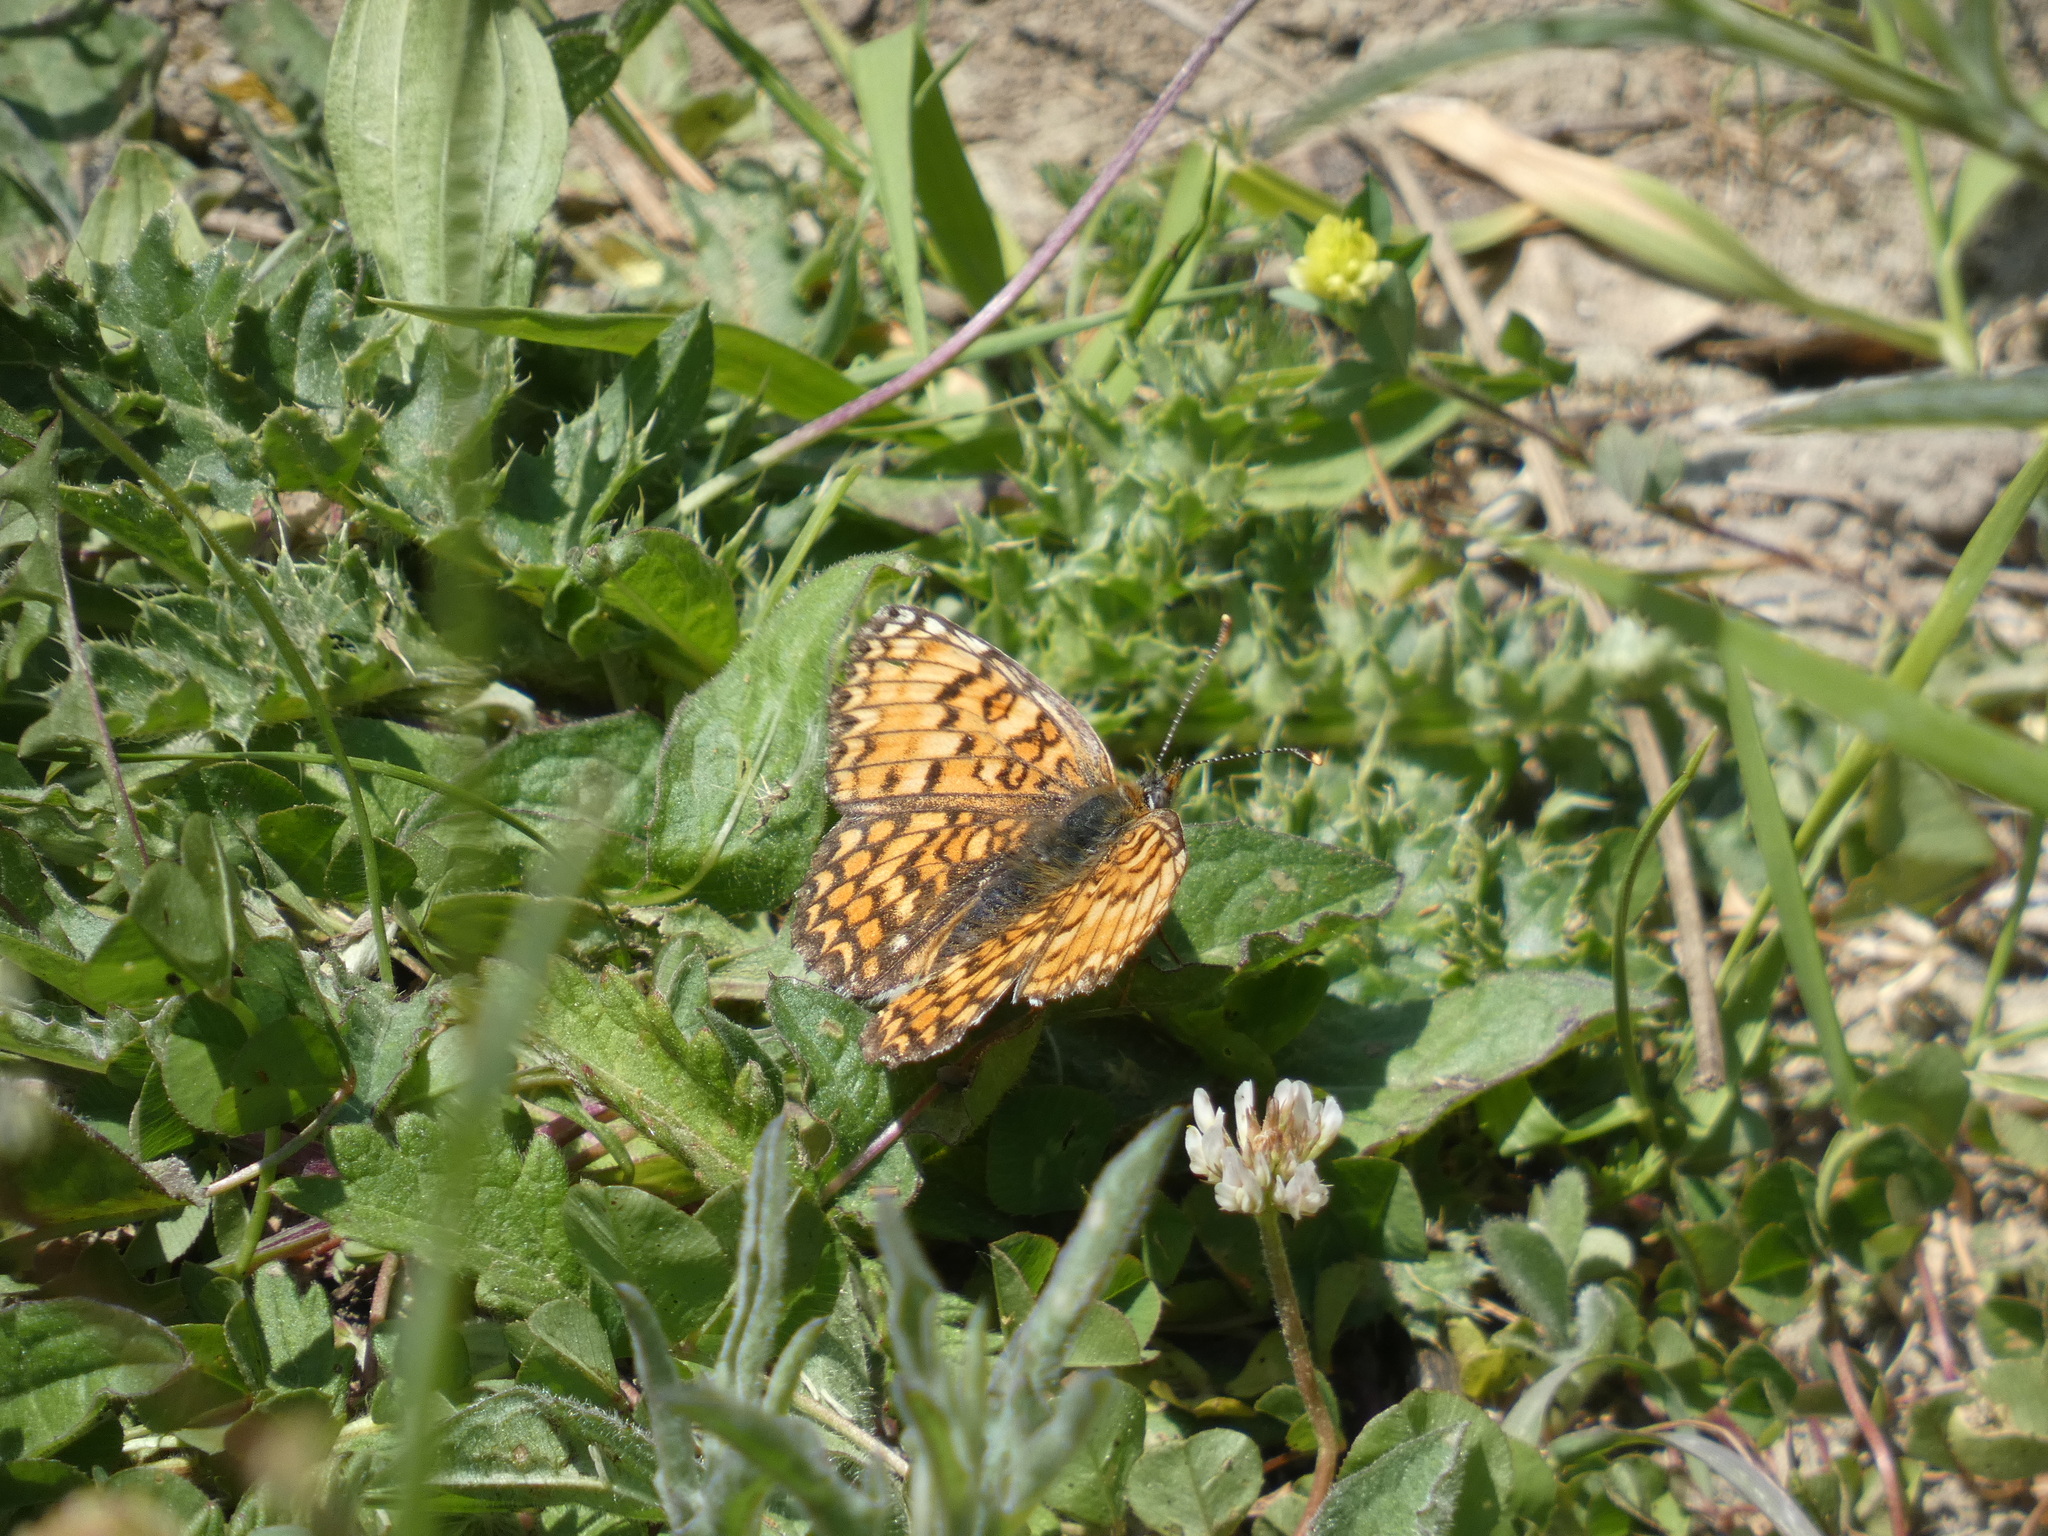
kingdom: Animalia
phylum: Arthropoda
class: Insecta
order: Lepidoptera
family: Nymphalidae
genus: Melitaea
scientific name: Melitaea phoebe
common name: Knapweed fritillary
